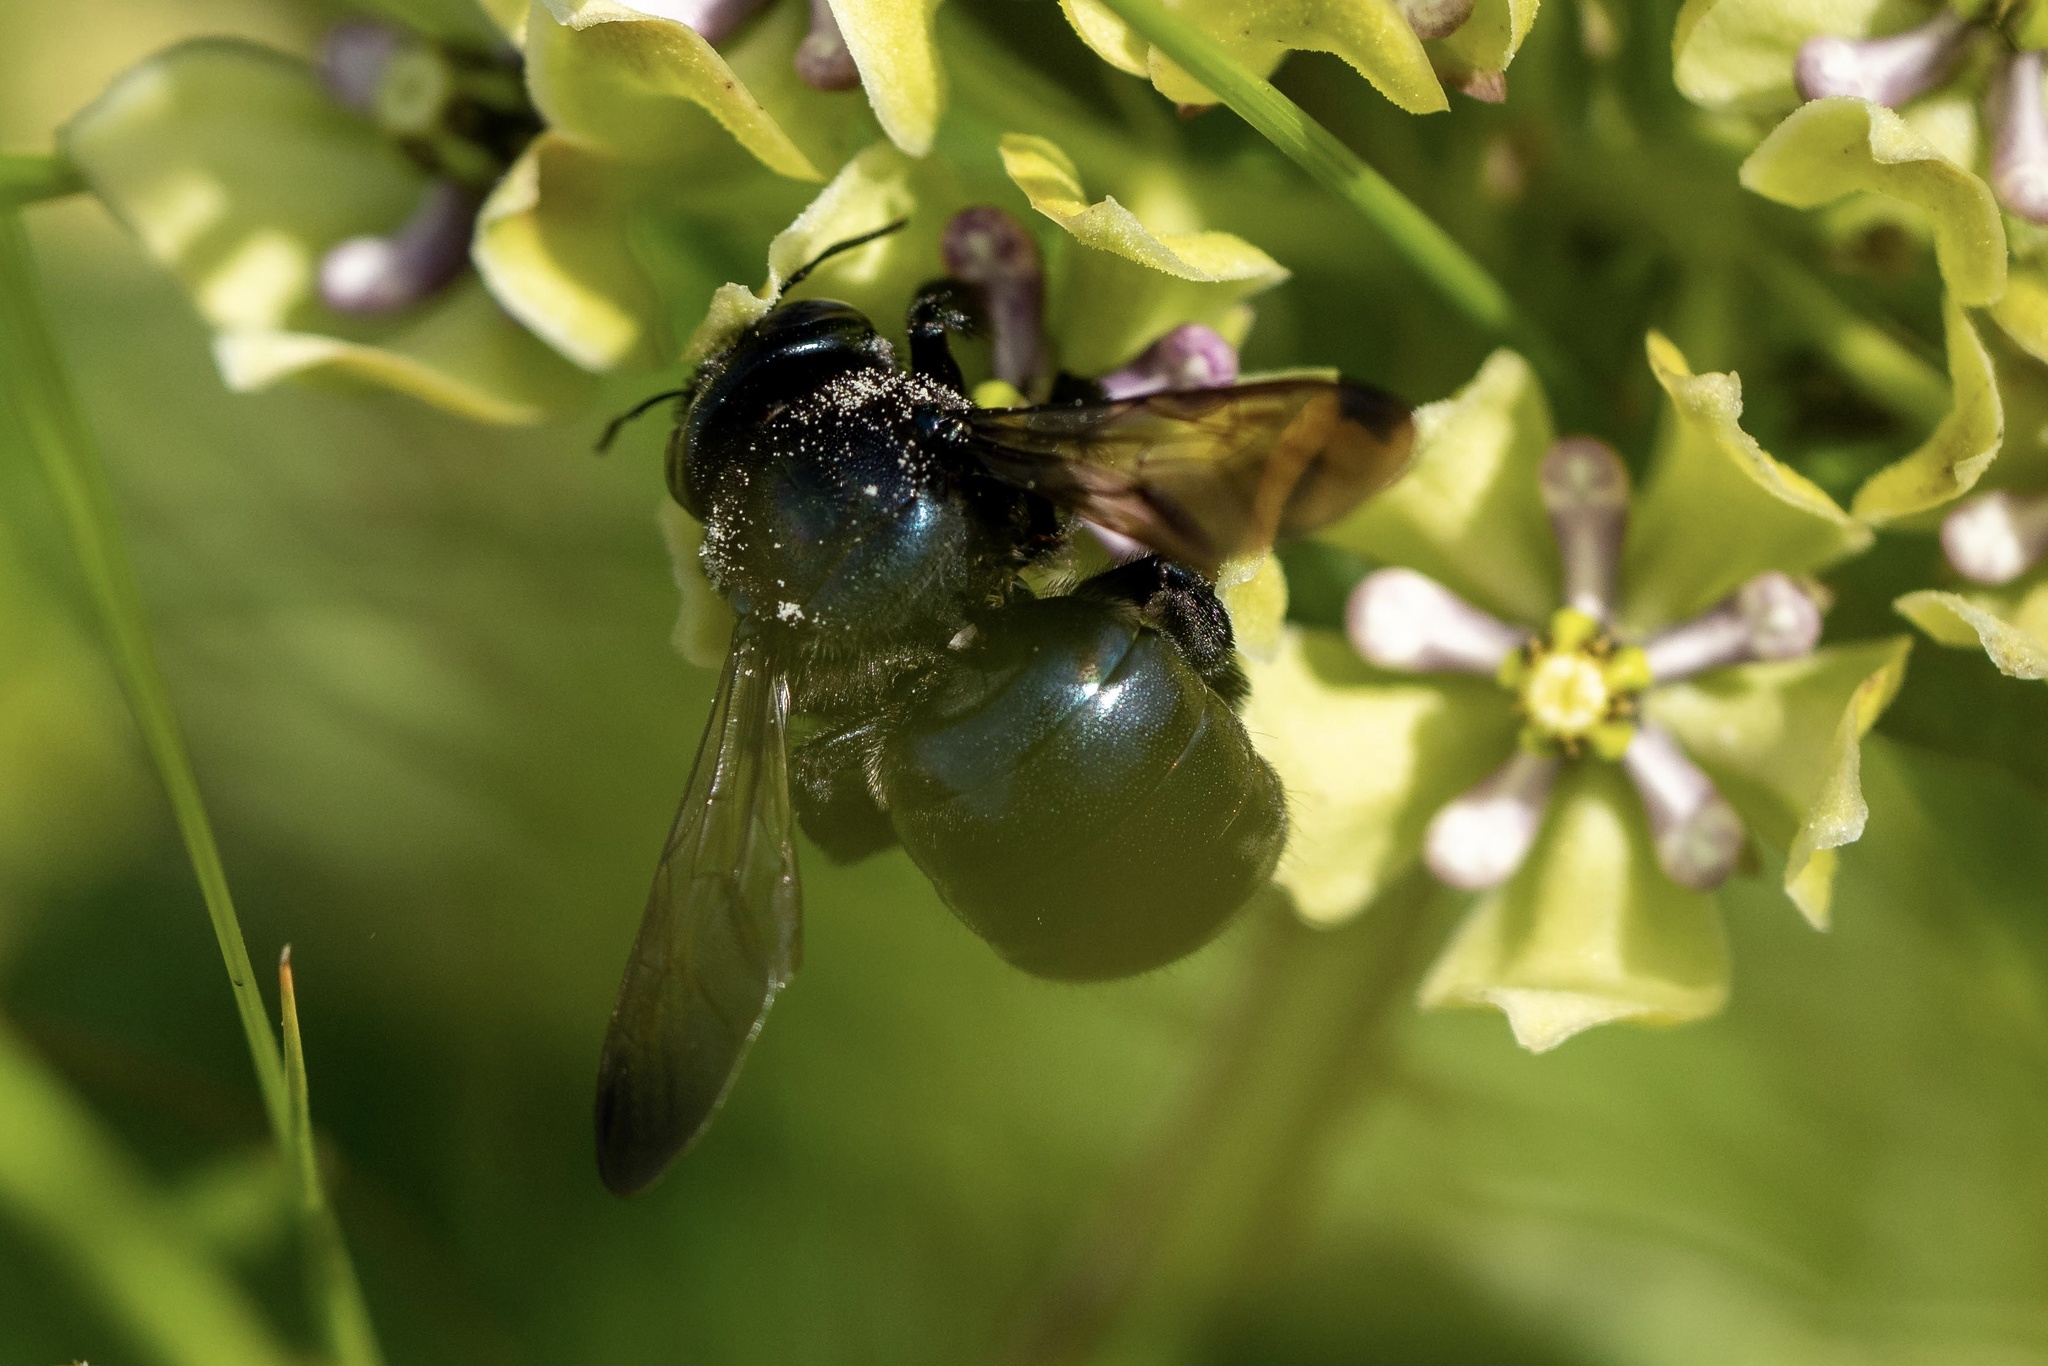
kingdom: Animalia
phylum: Arthropoda
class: Insecta
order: Hymenoptera
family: Apidae
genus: Xylocopa
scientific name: Xylocopa micans
